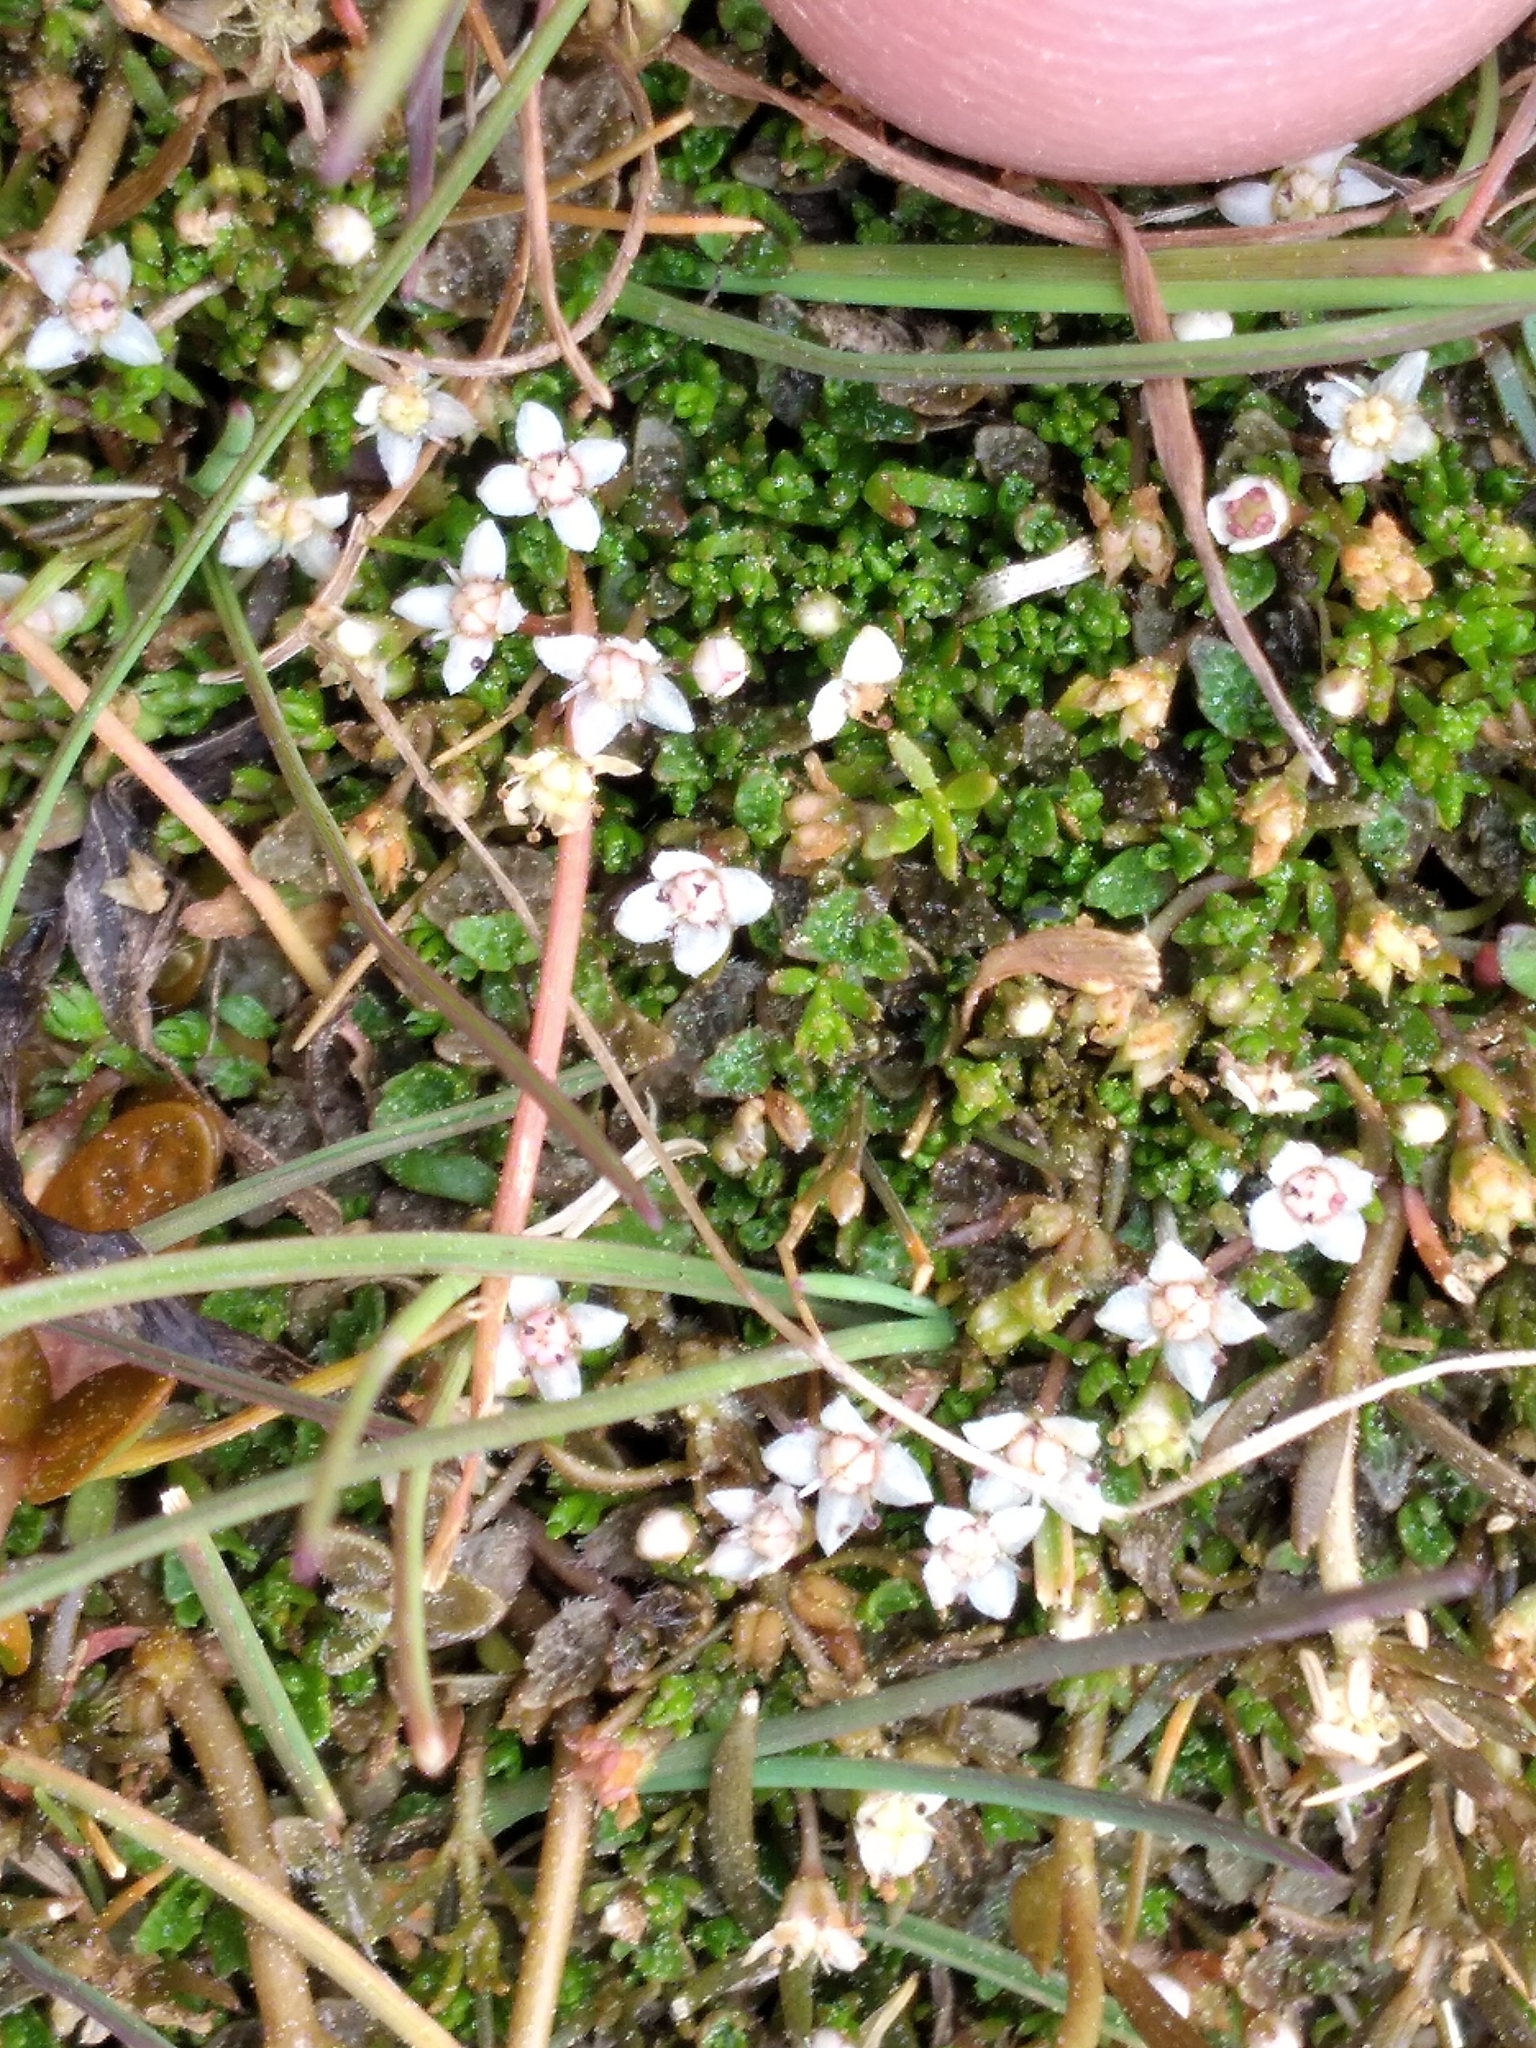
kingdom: Plantae
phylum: Tracheophyta
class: Magnoliopsida
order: Saxifragales
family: Crassulaceae
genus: Crassula
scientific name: Crassula sinclairii
